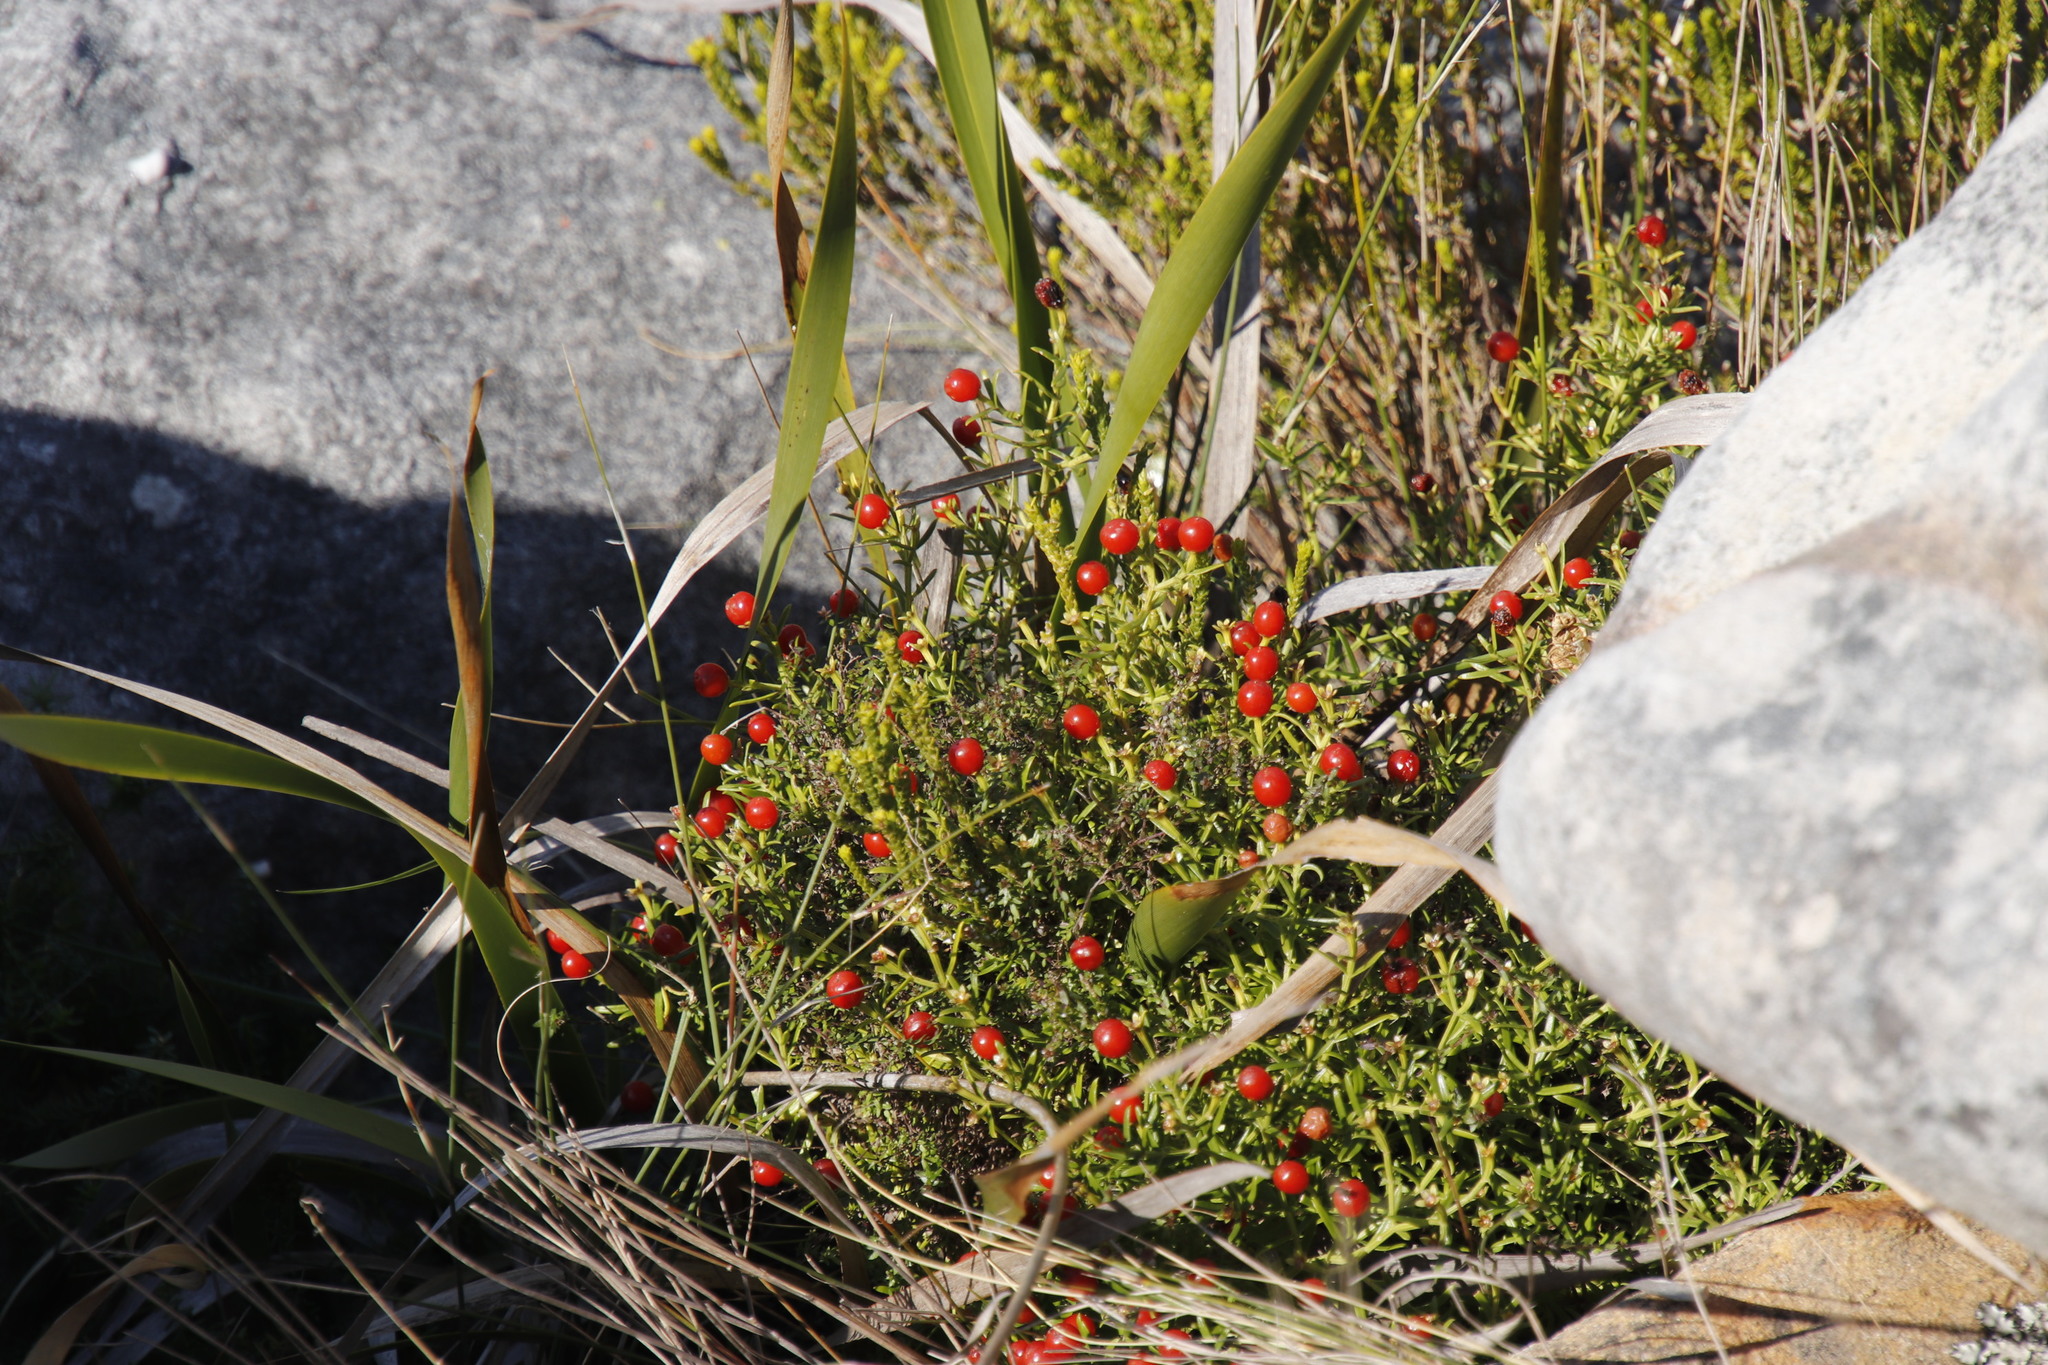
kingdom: Plantae
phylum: Tracheophyta
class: Magnoliopsida
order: Gentianales
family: Gentianaceae
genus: Chironia
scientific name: Chironia baccifera
